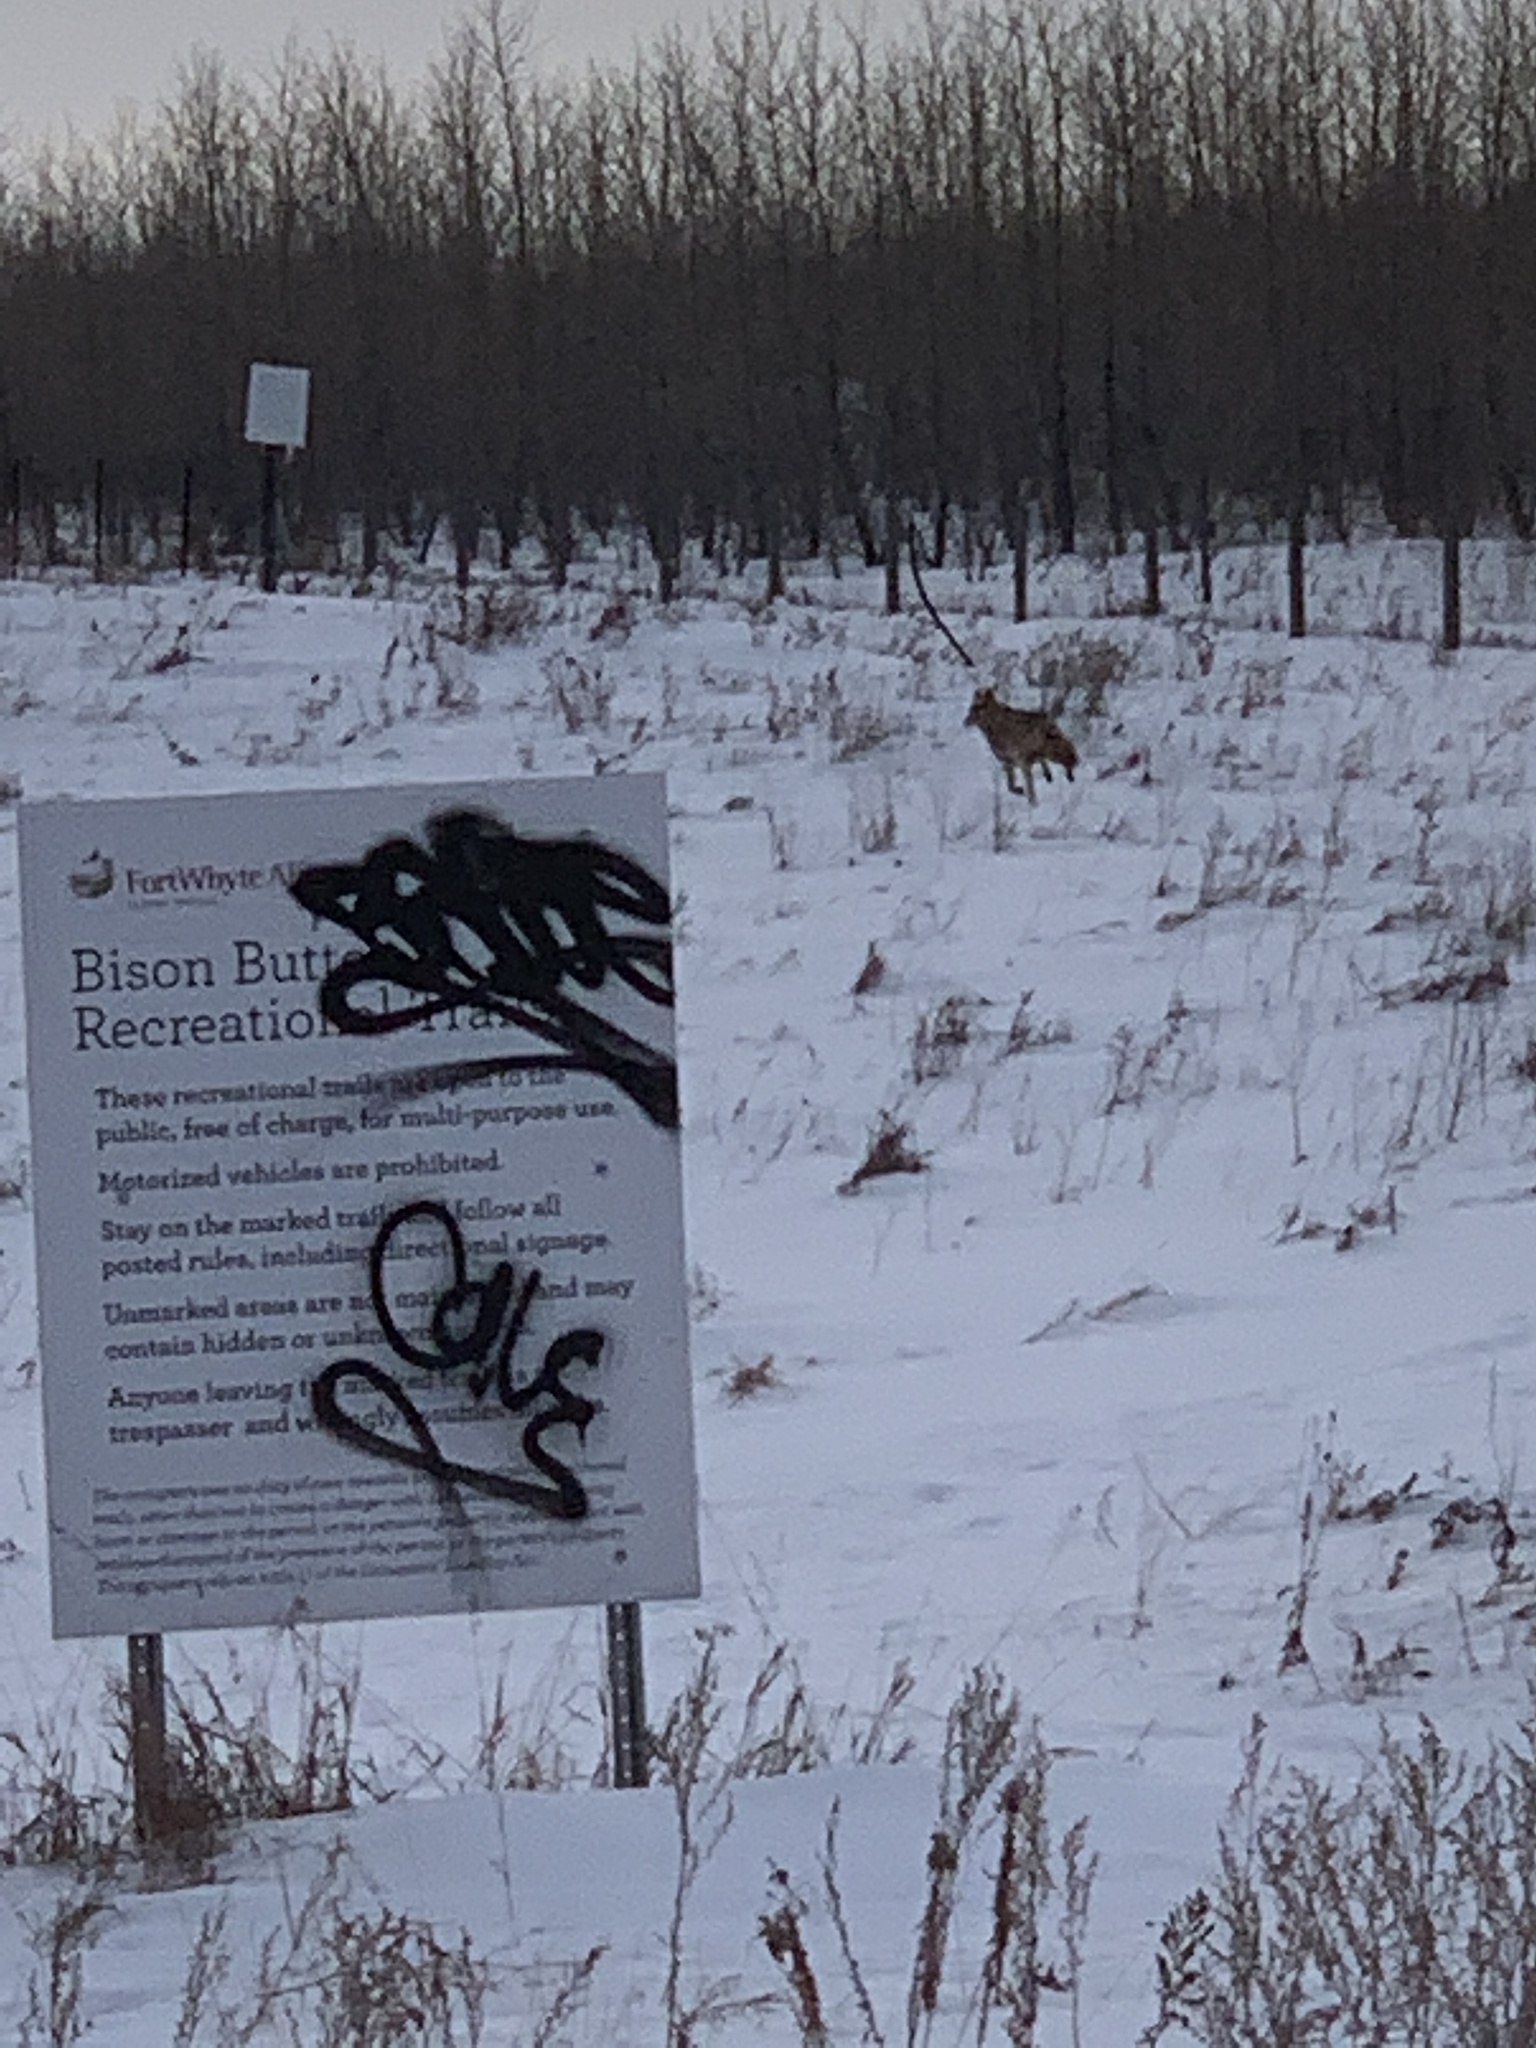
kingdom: Animalia
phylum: Chordata
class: Mammalia
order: Carnivora
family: Canidae
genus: Canis
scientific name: Canis latrans
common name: Coyote
